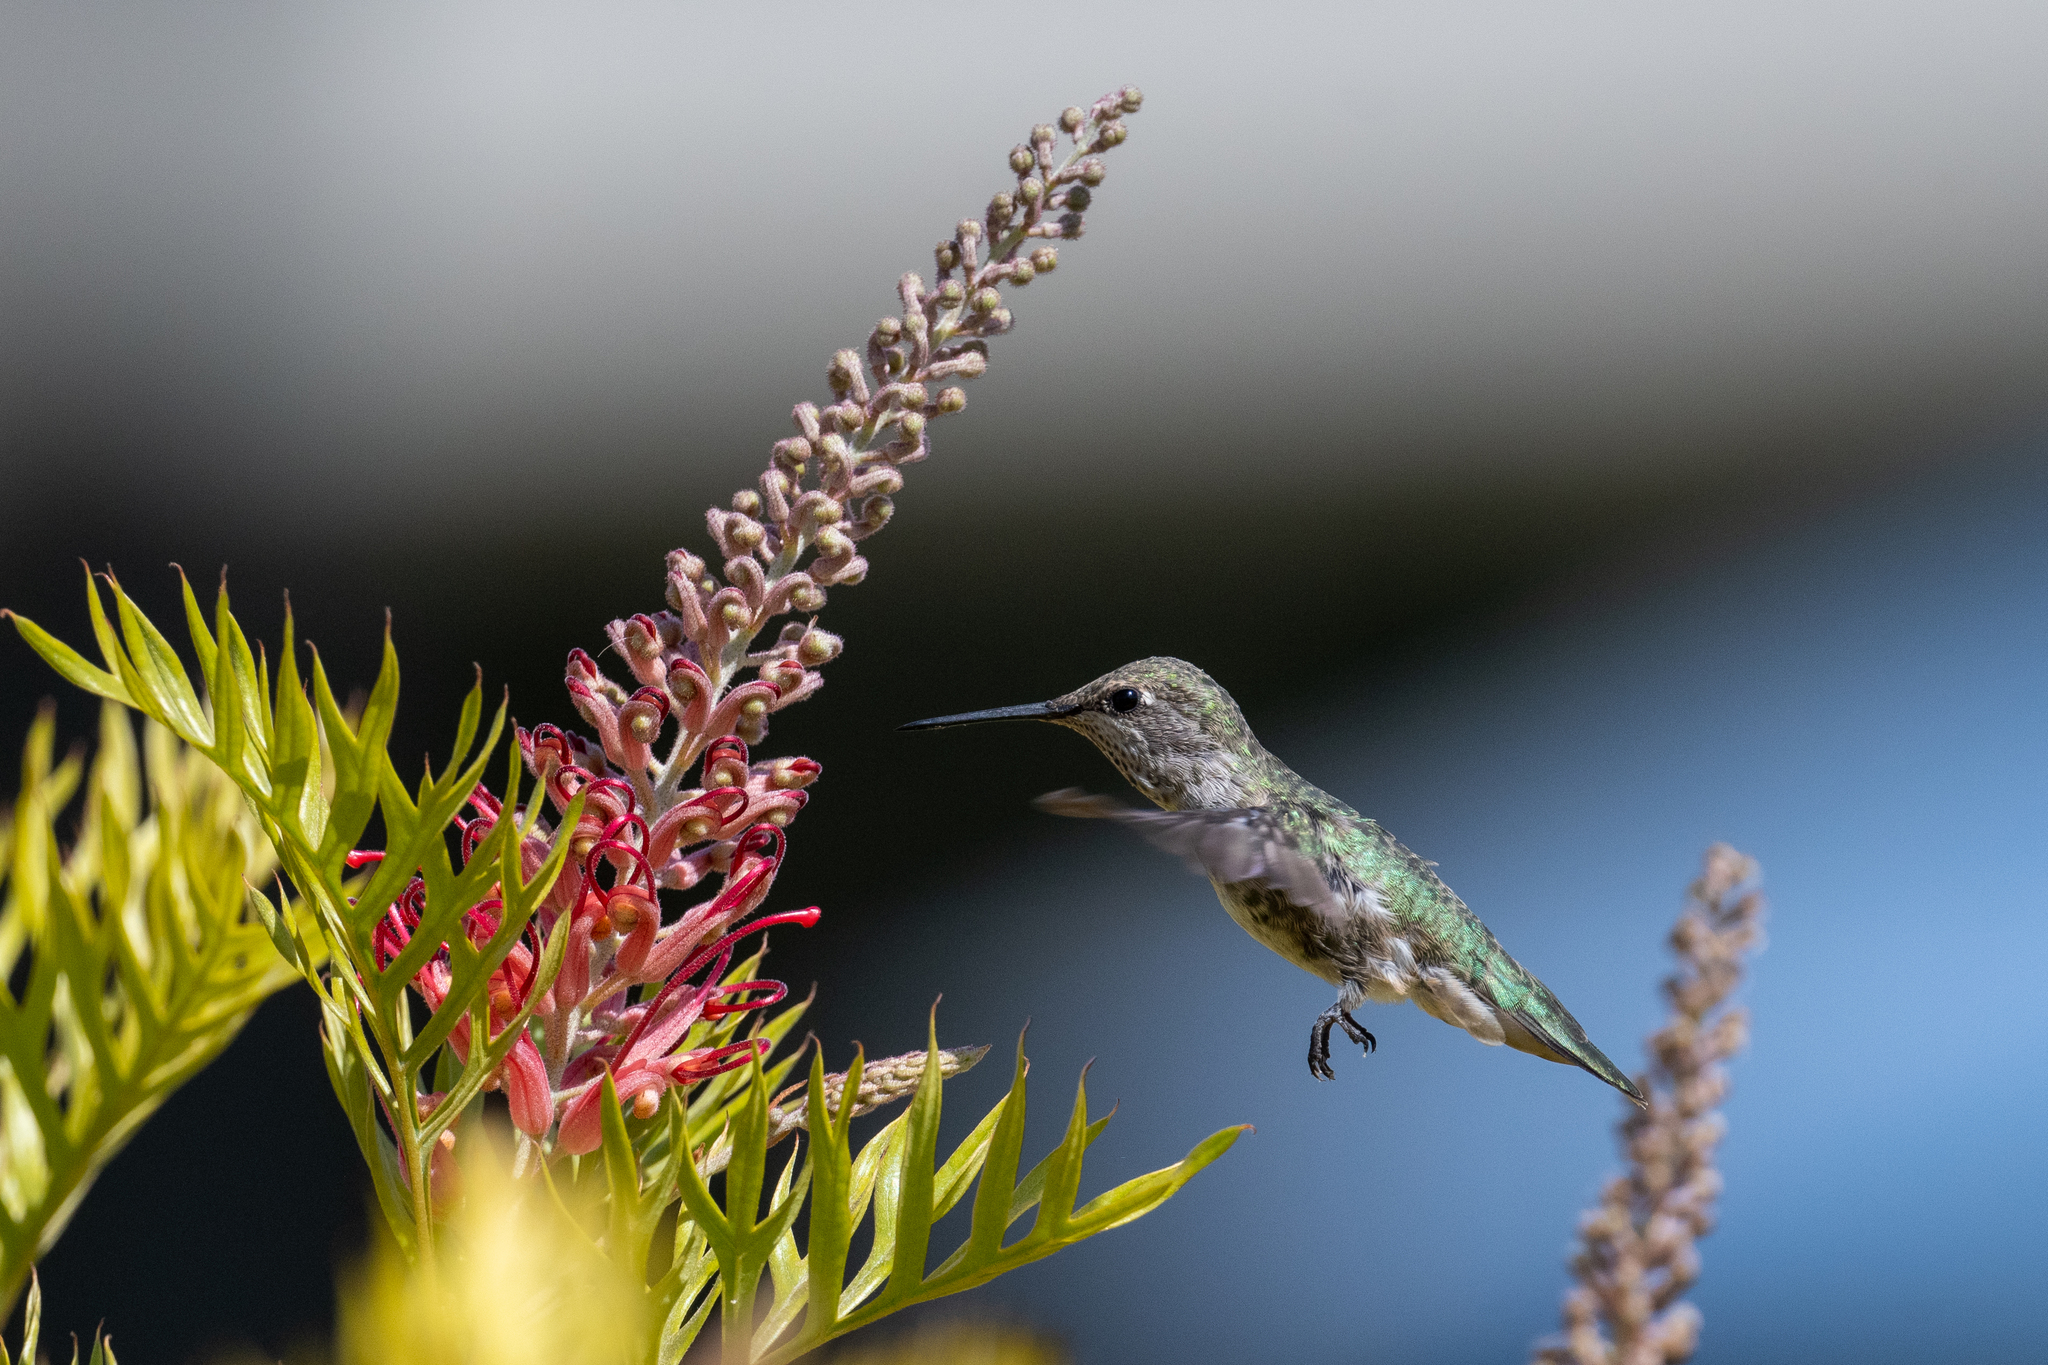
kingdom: Animalia
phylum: Chordata
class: Aves
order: Apodiformes
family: Trochilidae
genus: Calypte
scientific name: Calypte anna
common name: Anna's hummingbird
